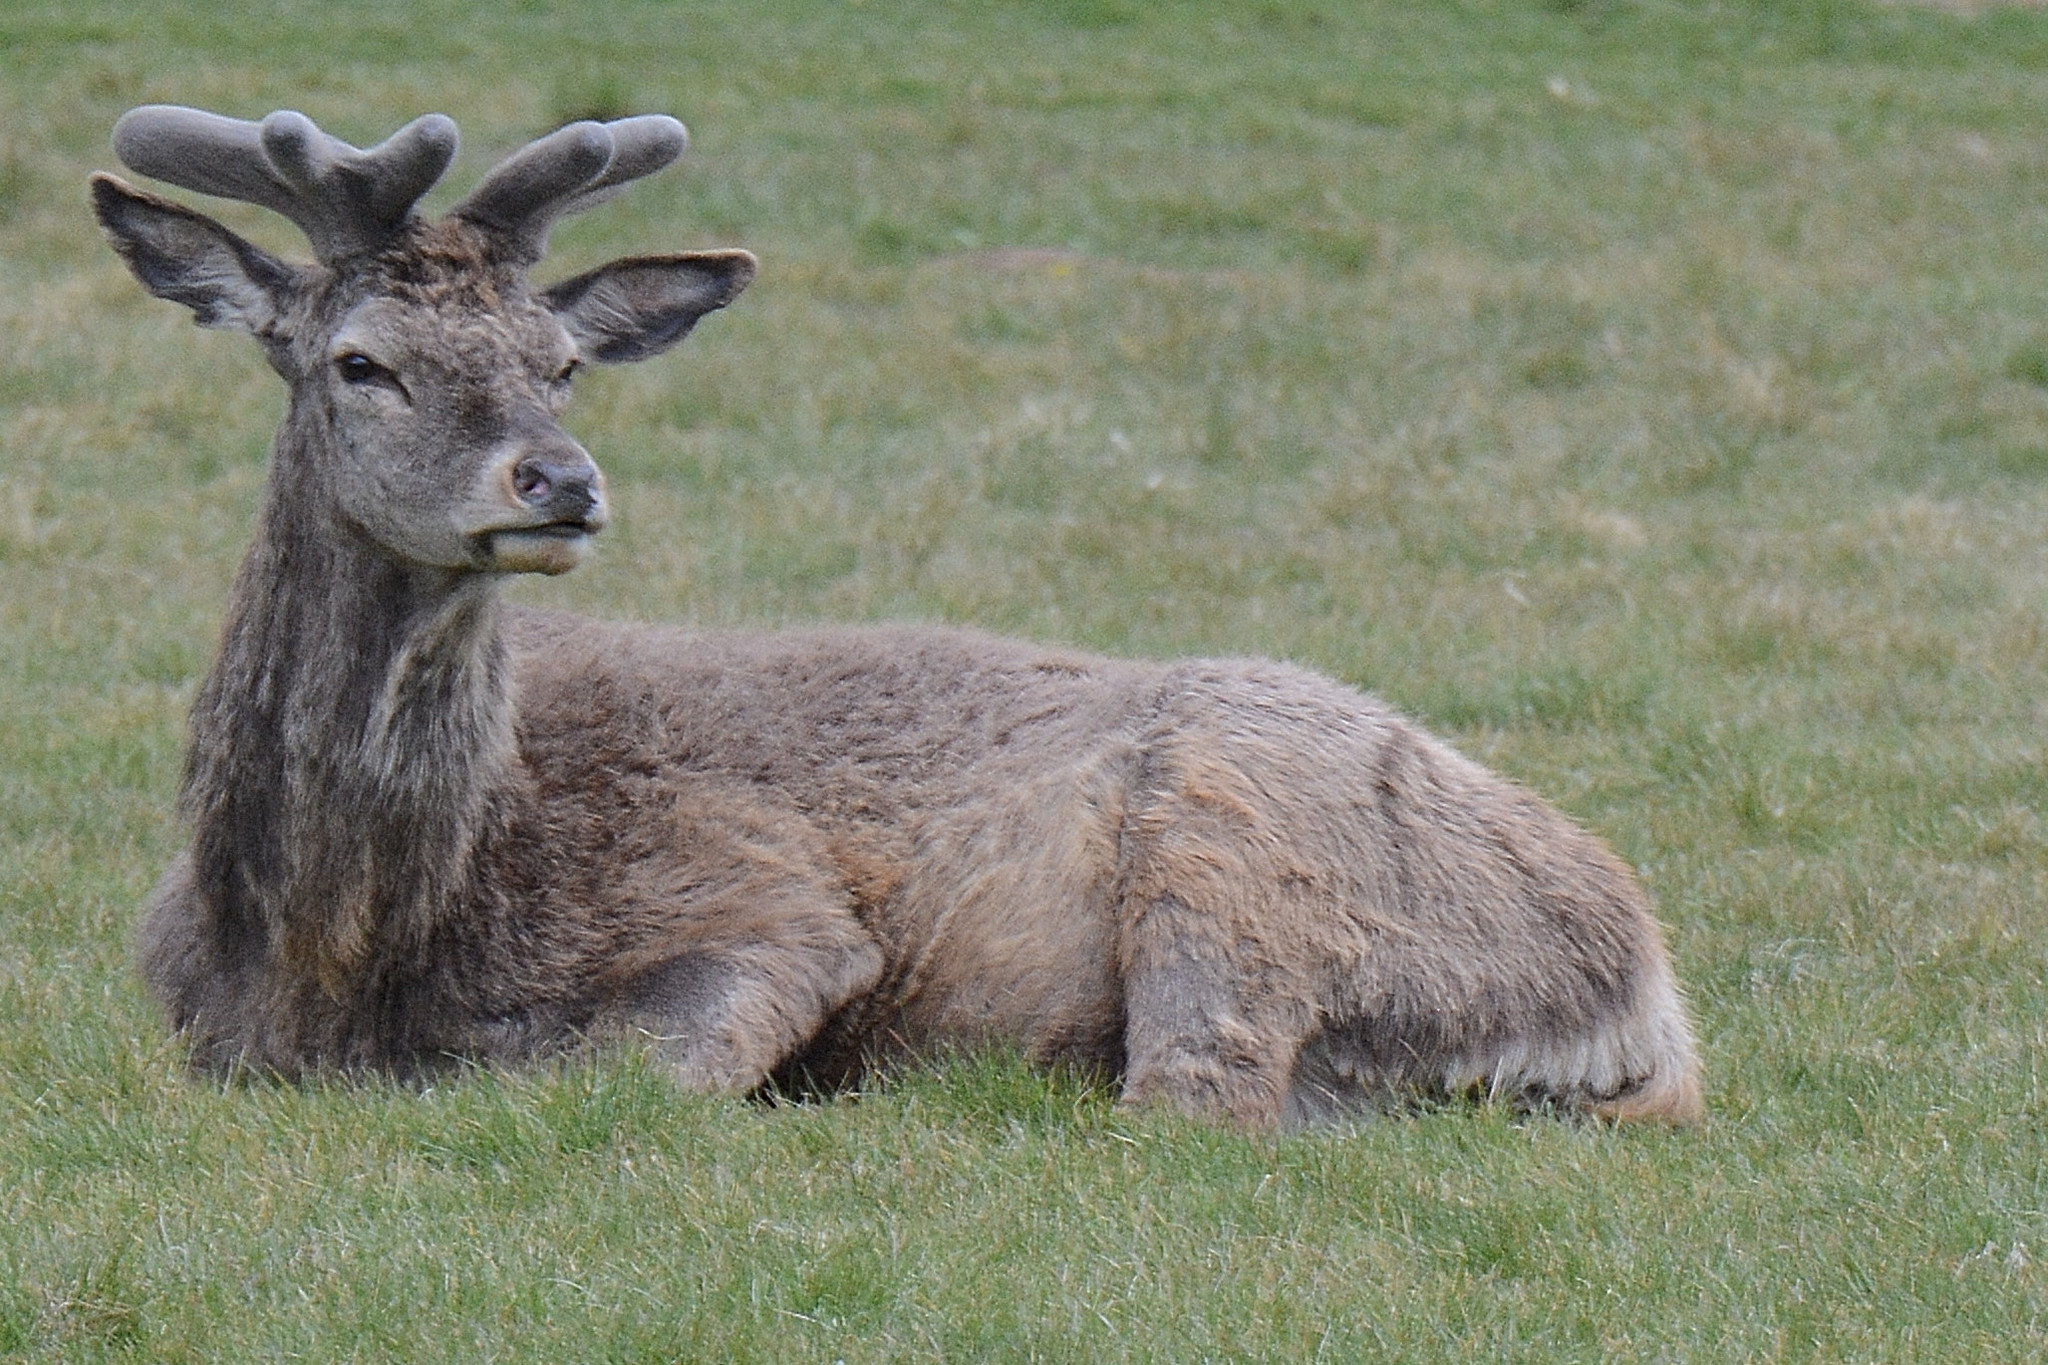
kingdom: Animalia
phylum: Chordata
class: Mammalia
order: Artiodactyla
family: Cervidae
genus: Cervus
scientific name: Cervus elaphus
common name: Red deer
